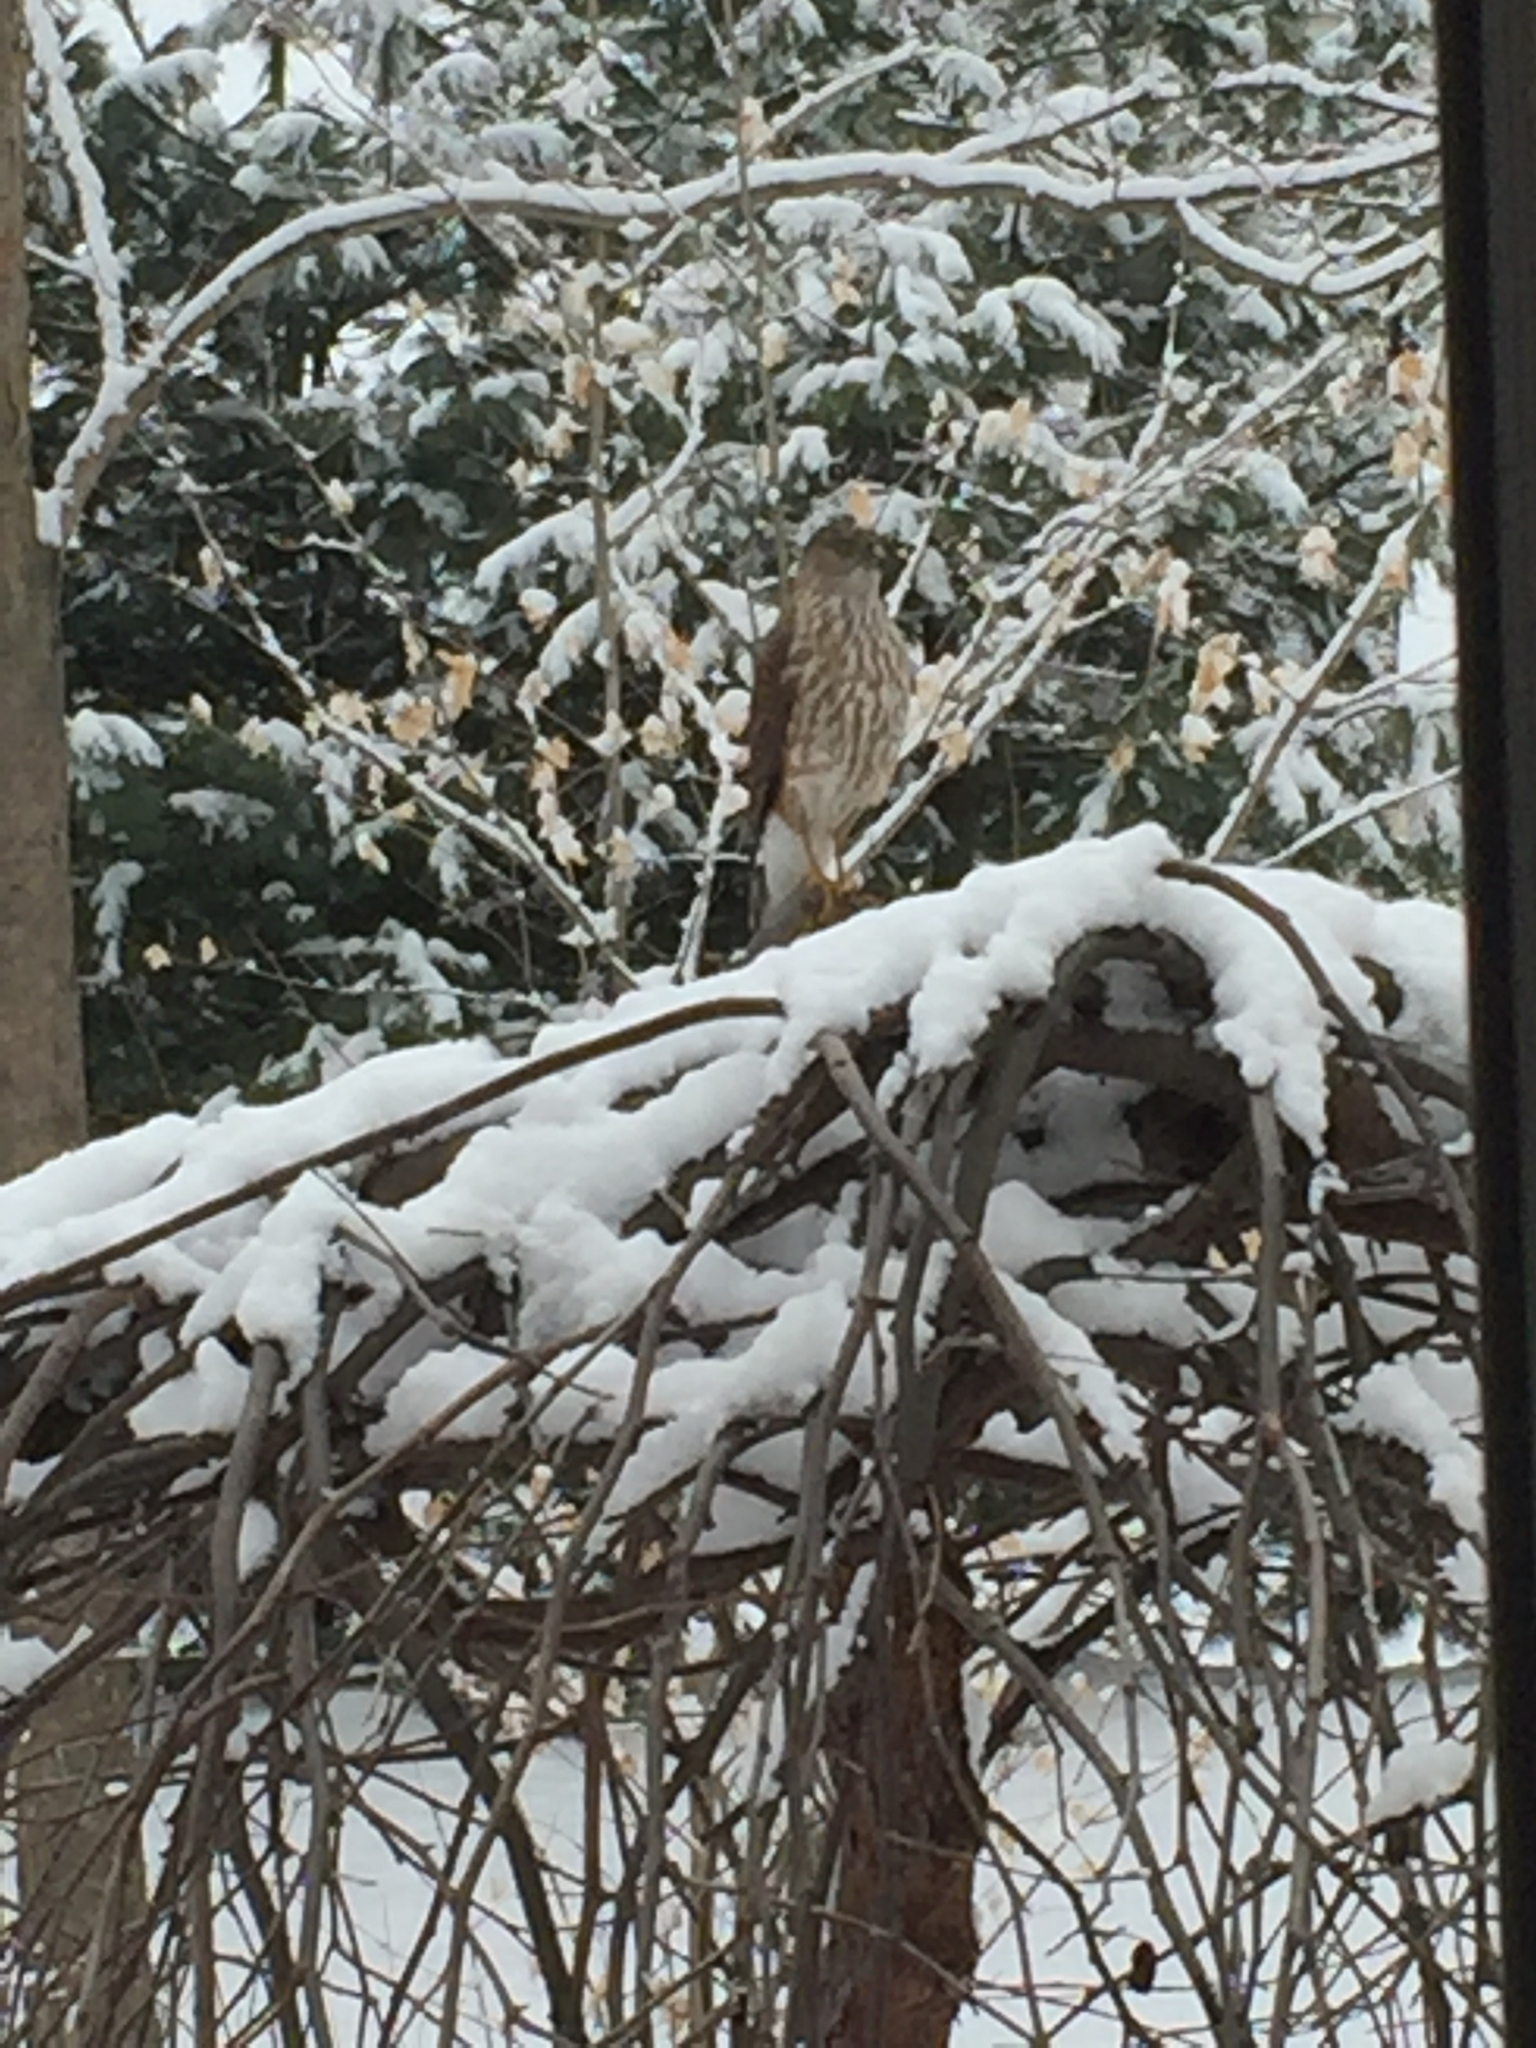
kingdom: Animalia
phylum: Chordata
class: Aves
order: Accipitriformes
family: Accipitridae
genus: Accipiter
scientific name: Accipiter striatus
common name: Sharp-shinned hawk
